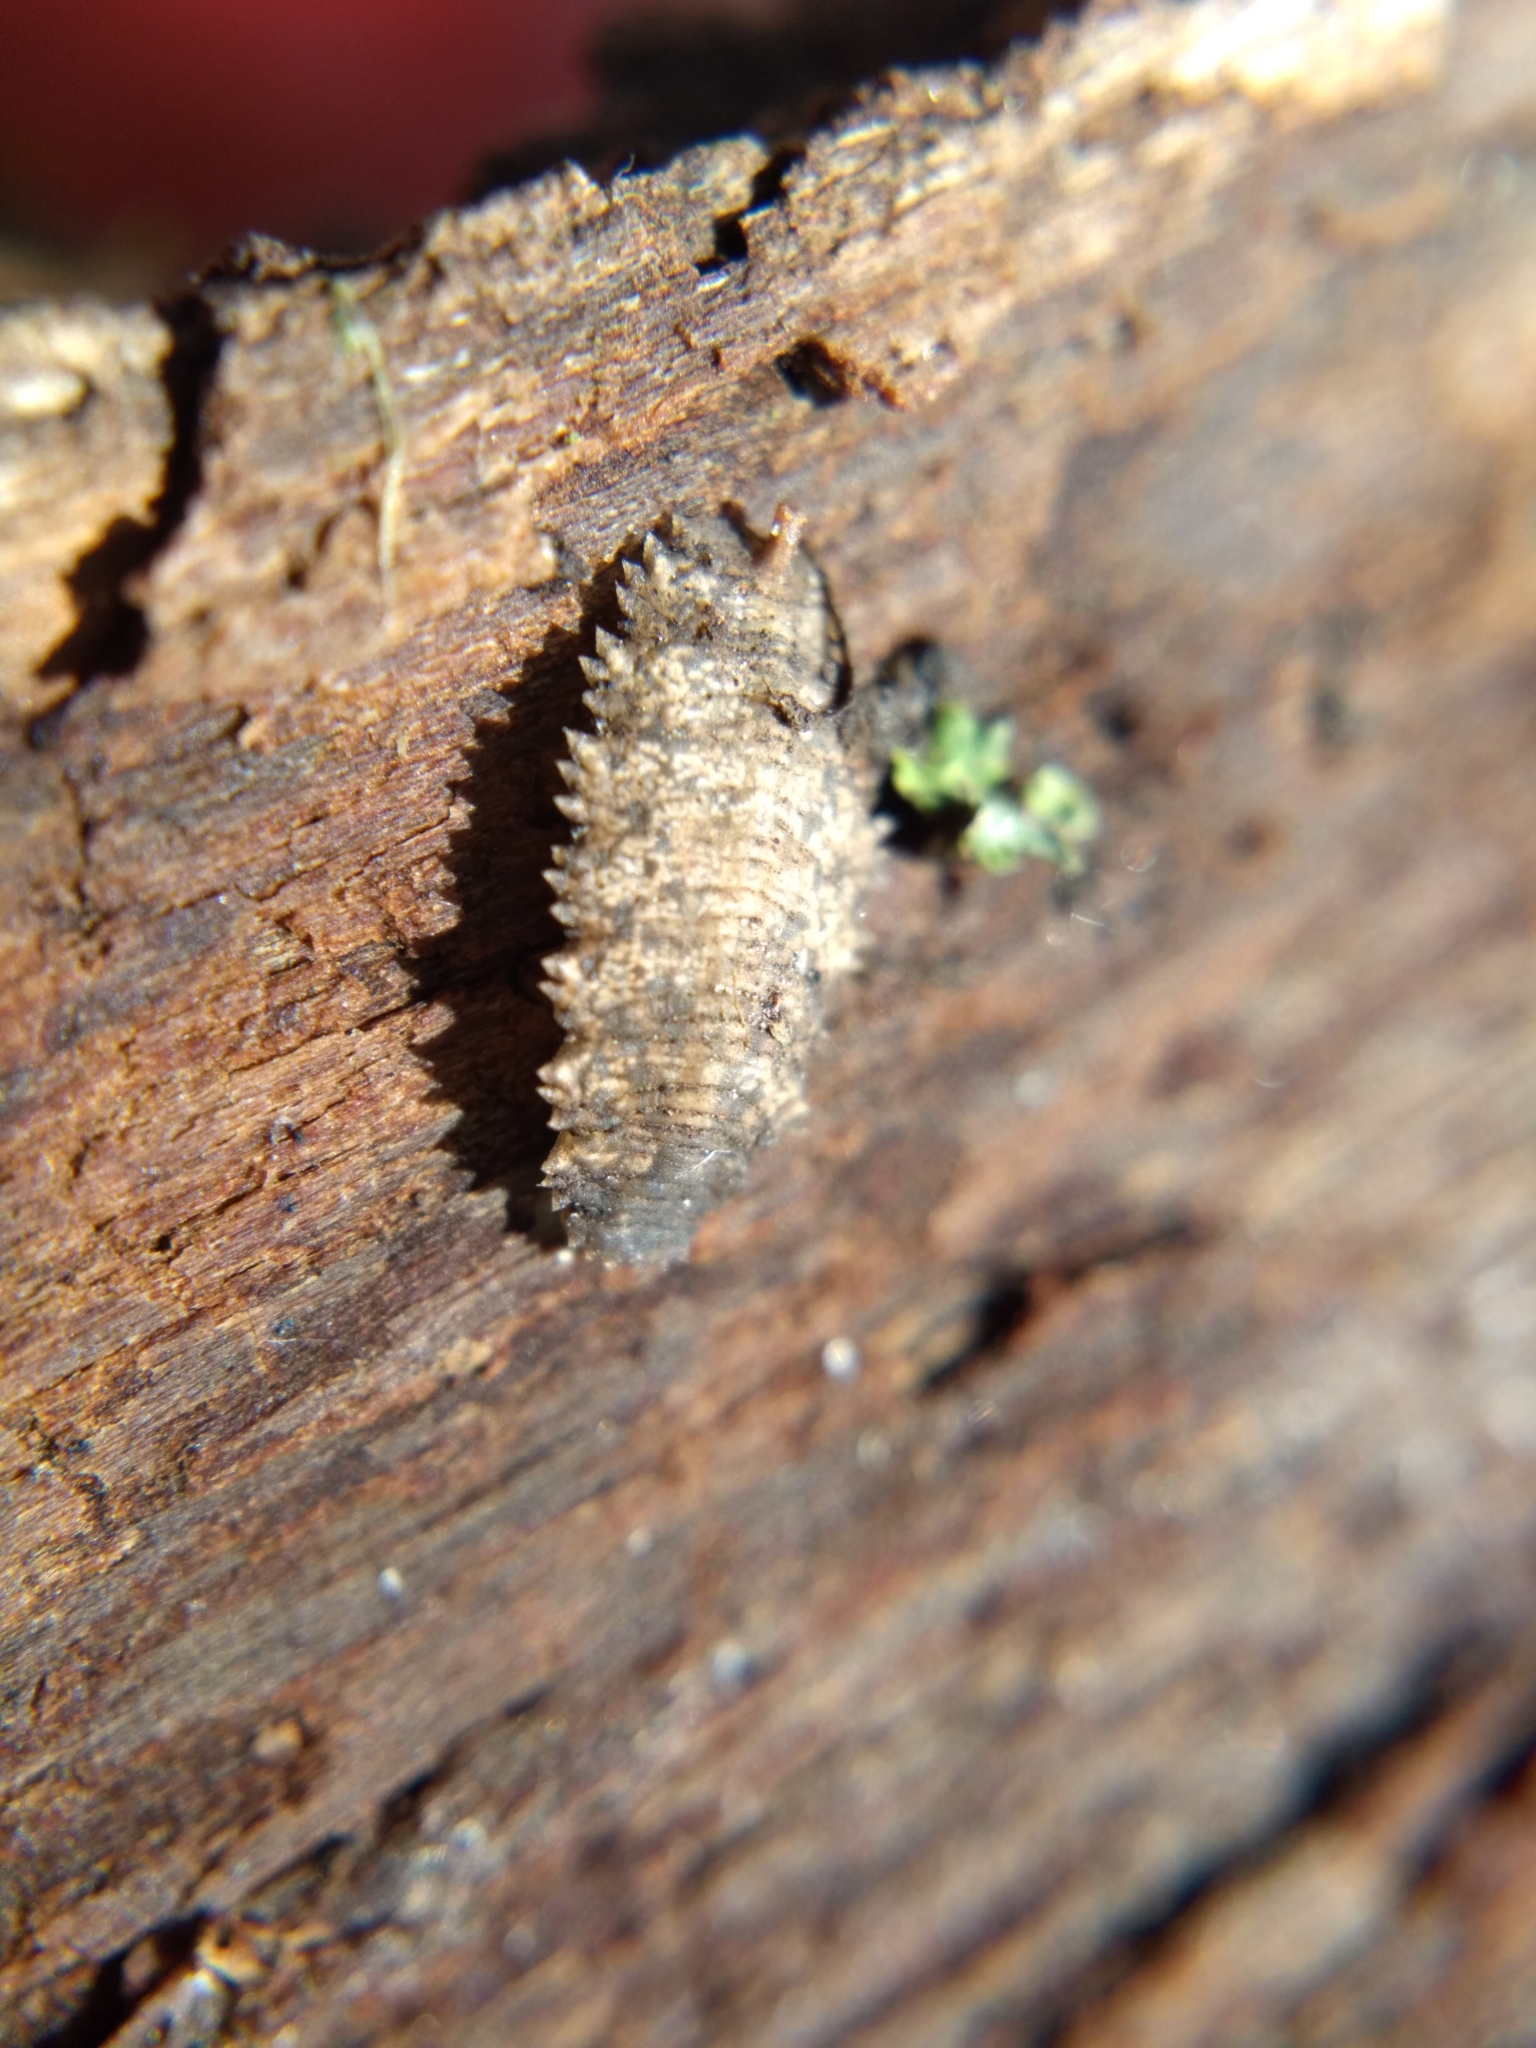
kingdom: Animalia
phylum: Arthropoda
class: Insecta
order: Diptera
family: Syrphidae
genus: Epistrophella
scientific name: Epistrophella emarginata
